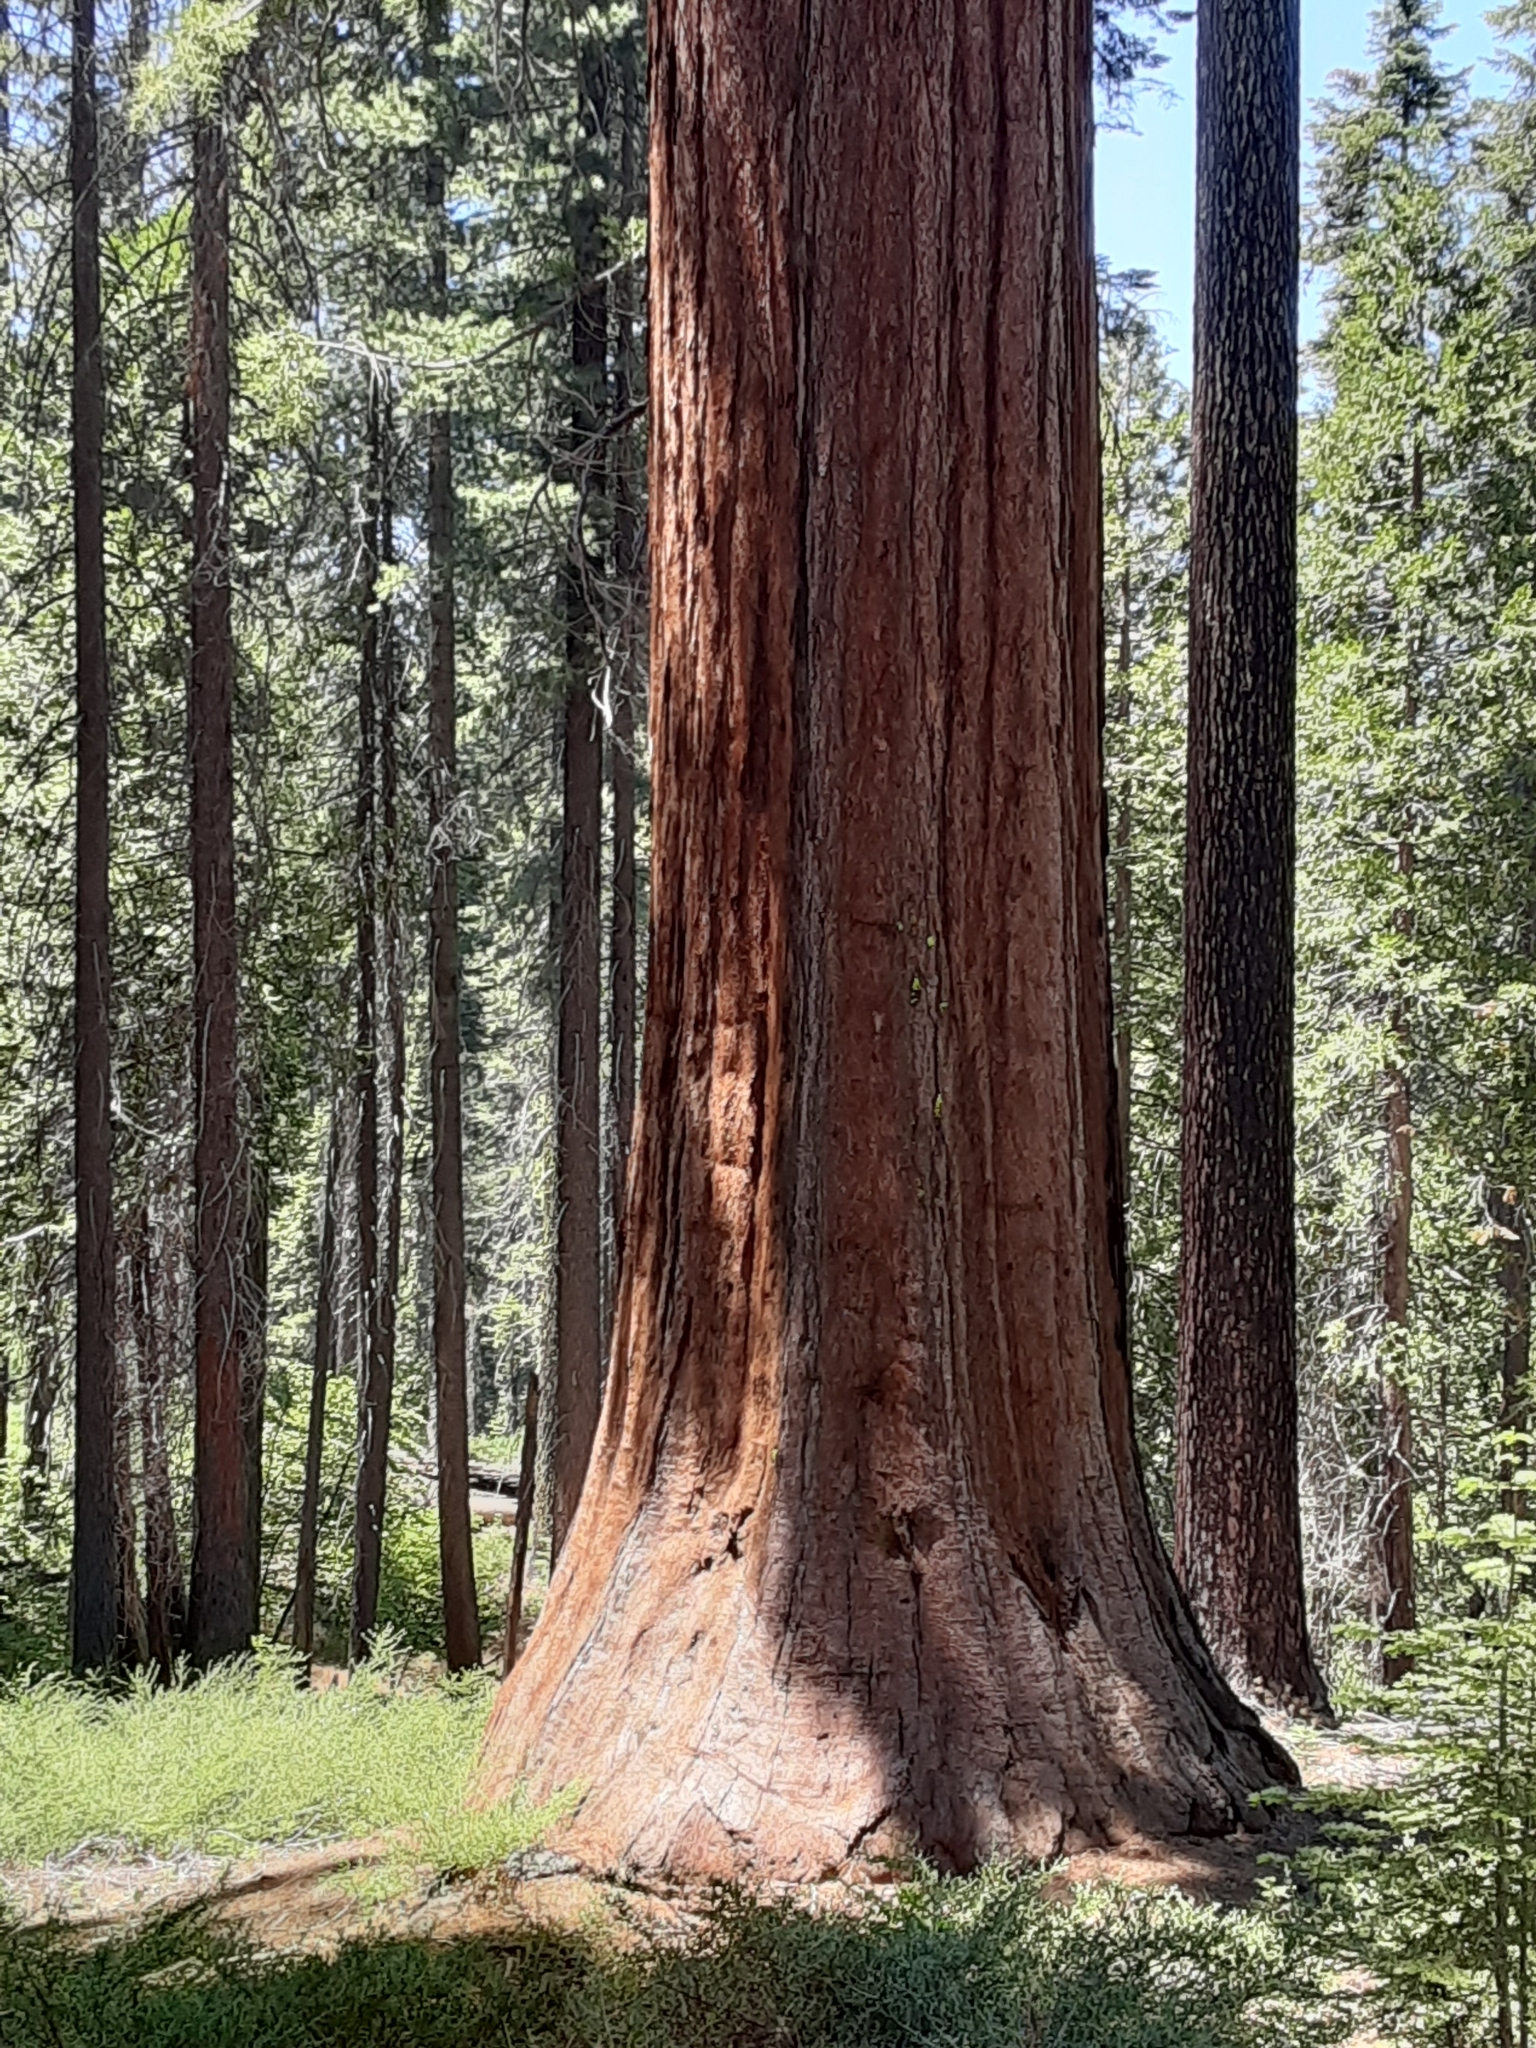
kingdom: Plantae
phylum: Tracheophyta
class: Pinopsida
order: Pinales
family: Cupressaceae
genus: Sequoiadendron
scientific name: Sequoiadendron giganteum
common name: Wellingtonia
